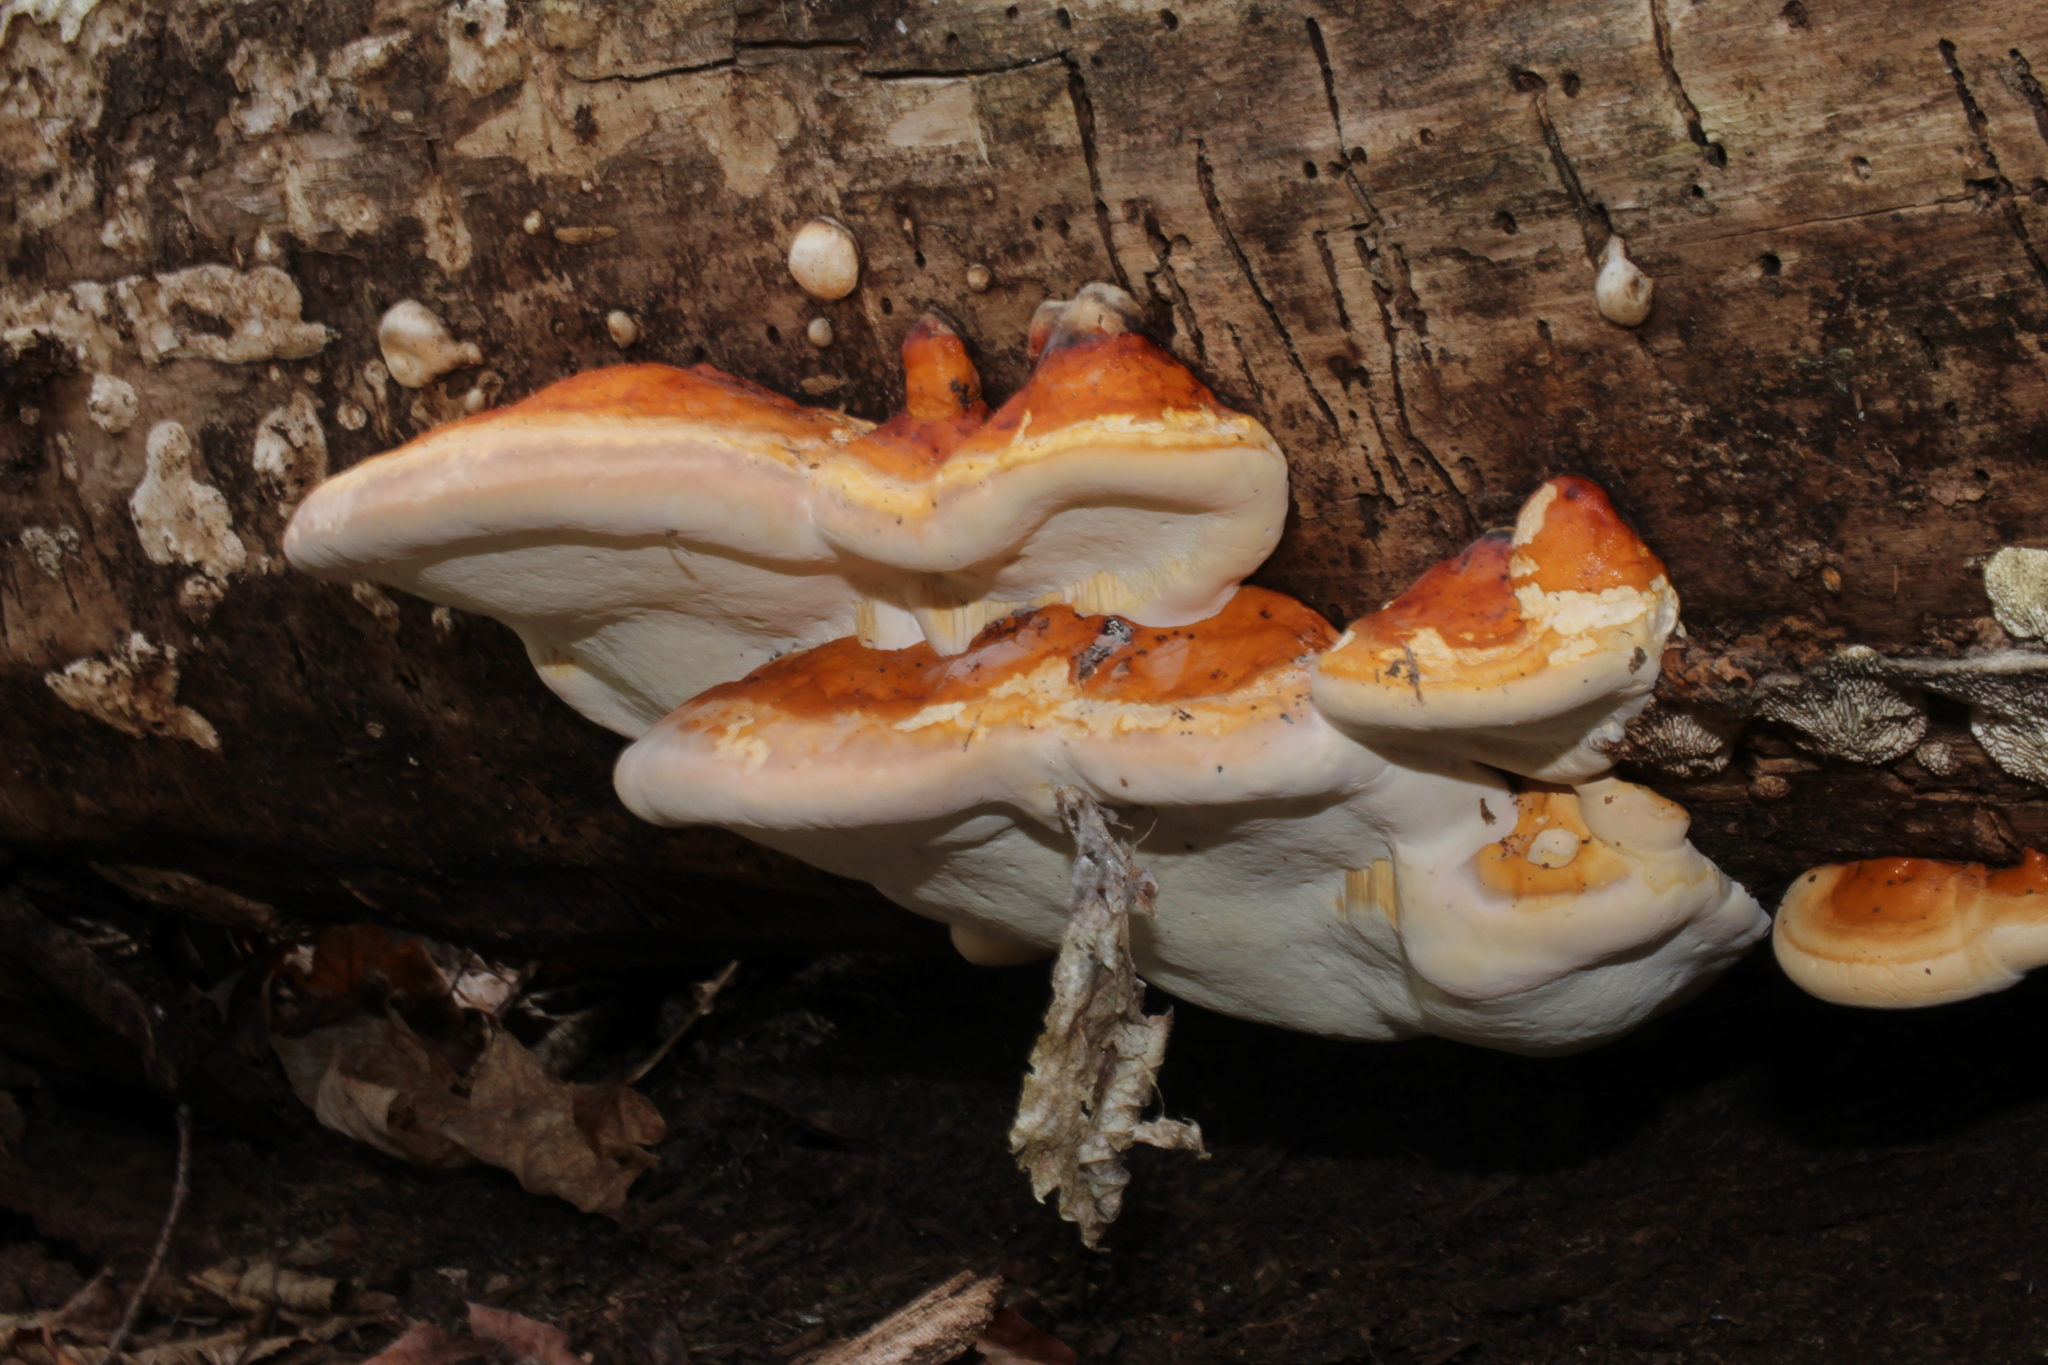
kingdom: Fungi
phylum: Basidiomycota
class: Agaricomycetes
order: Polyporales
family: Fomitopsidaceae
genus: Fomitopsis
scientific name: Fomitopsis mounceae
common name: Northern red belt
